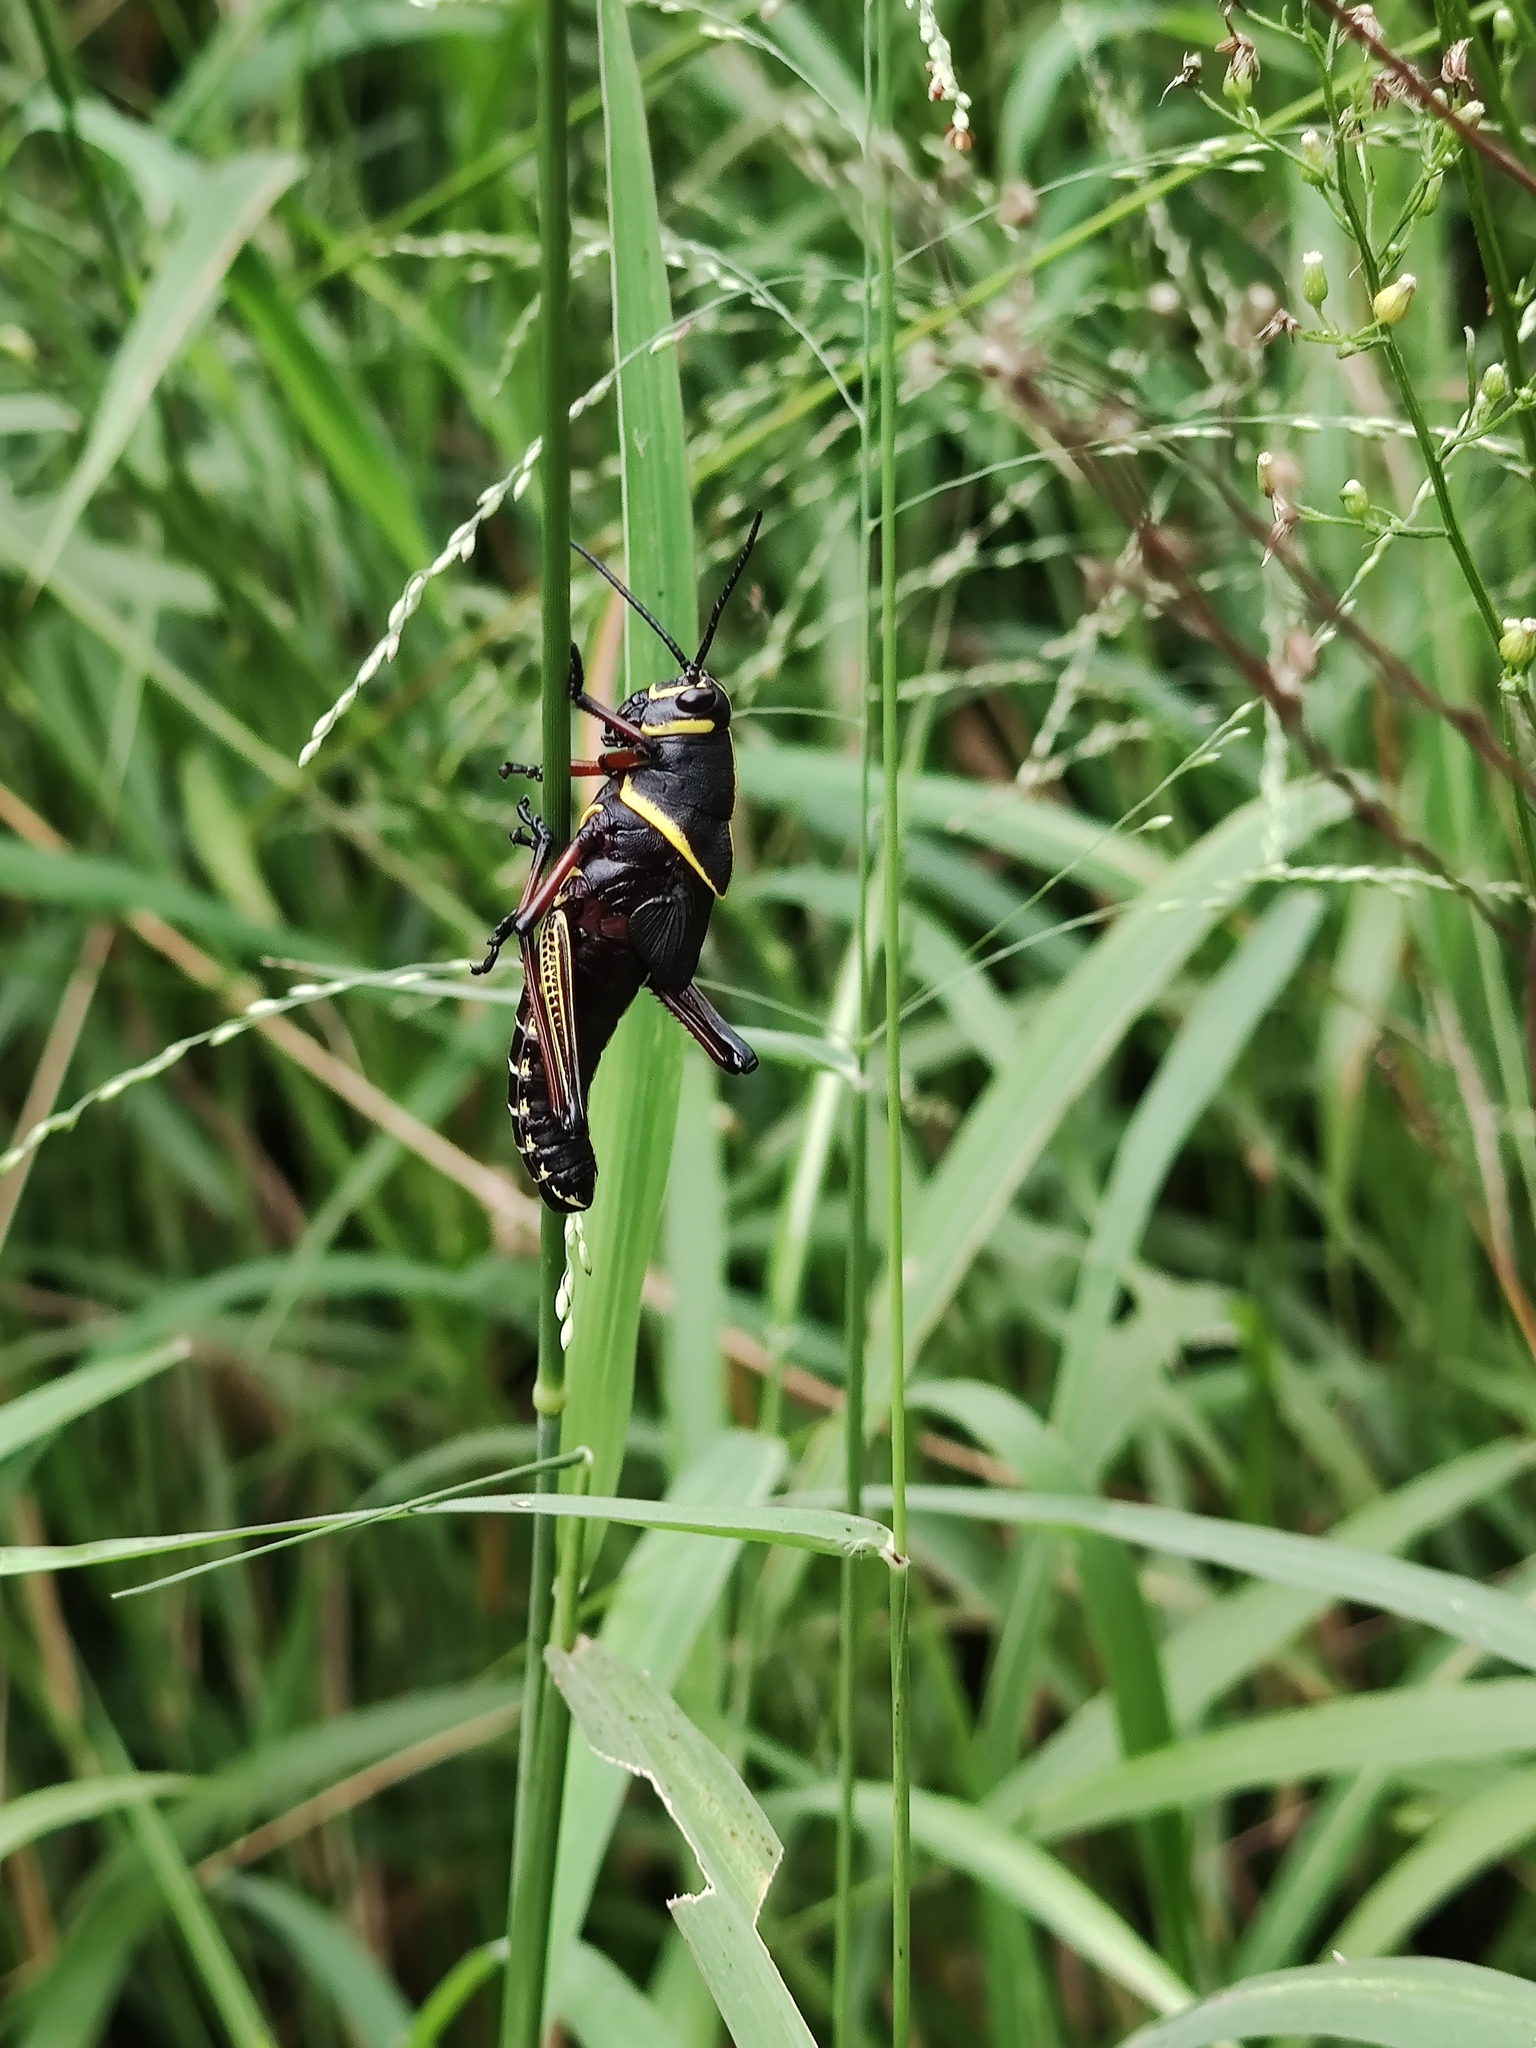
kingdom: Animalia
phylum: Arthropoda
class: Insecta
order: Orthoptera
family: Romaleidae
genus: Romalea
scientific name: Romalea
